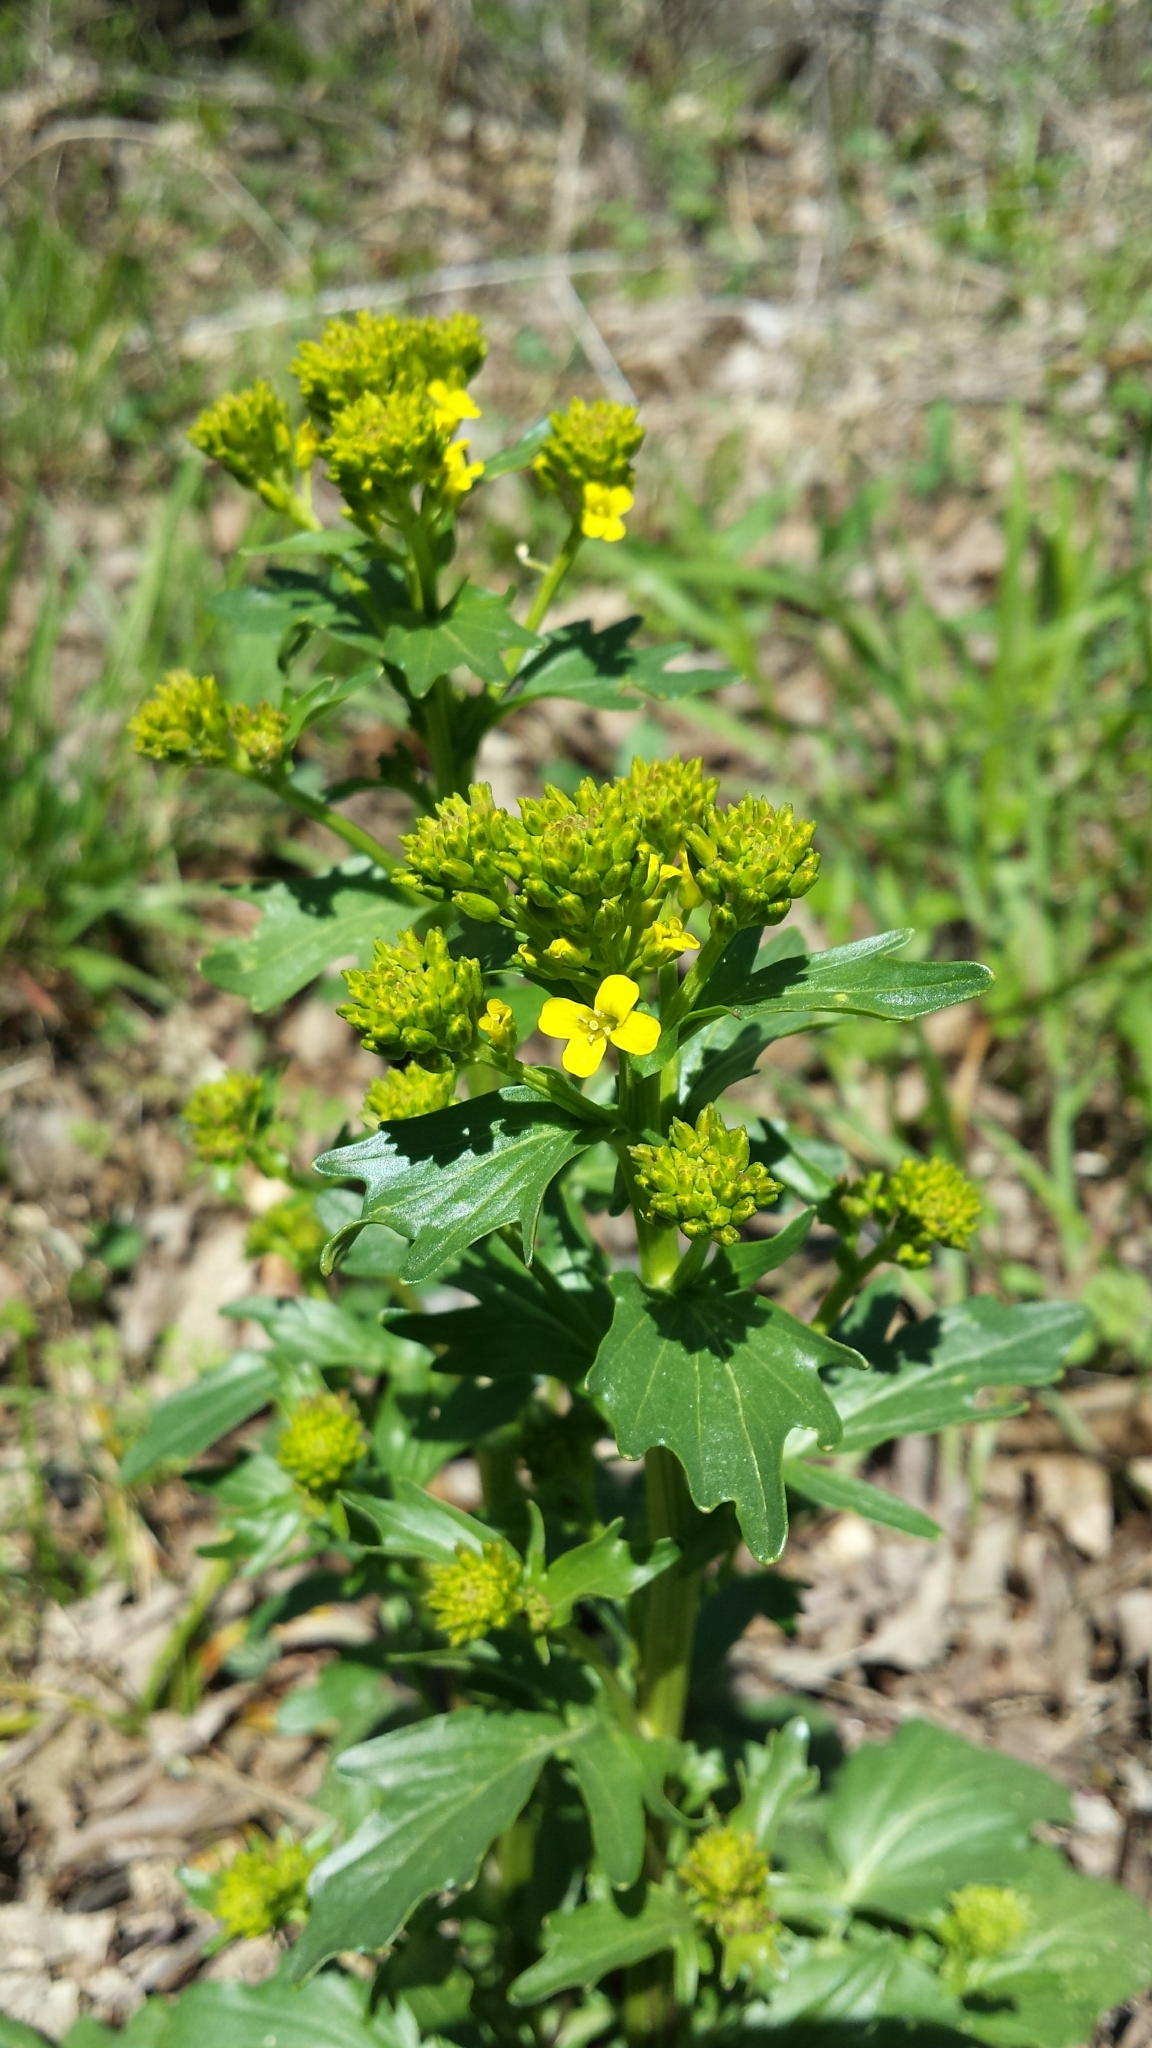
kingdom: Plantae
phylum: Tracheophyta
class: Magnoliopsida
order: Brassicales
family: Brassicaceae
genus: Barbarea
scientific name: Barbarea vulgaris
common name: Cressy-greens
